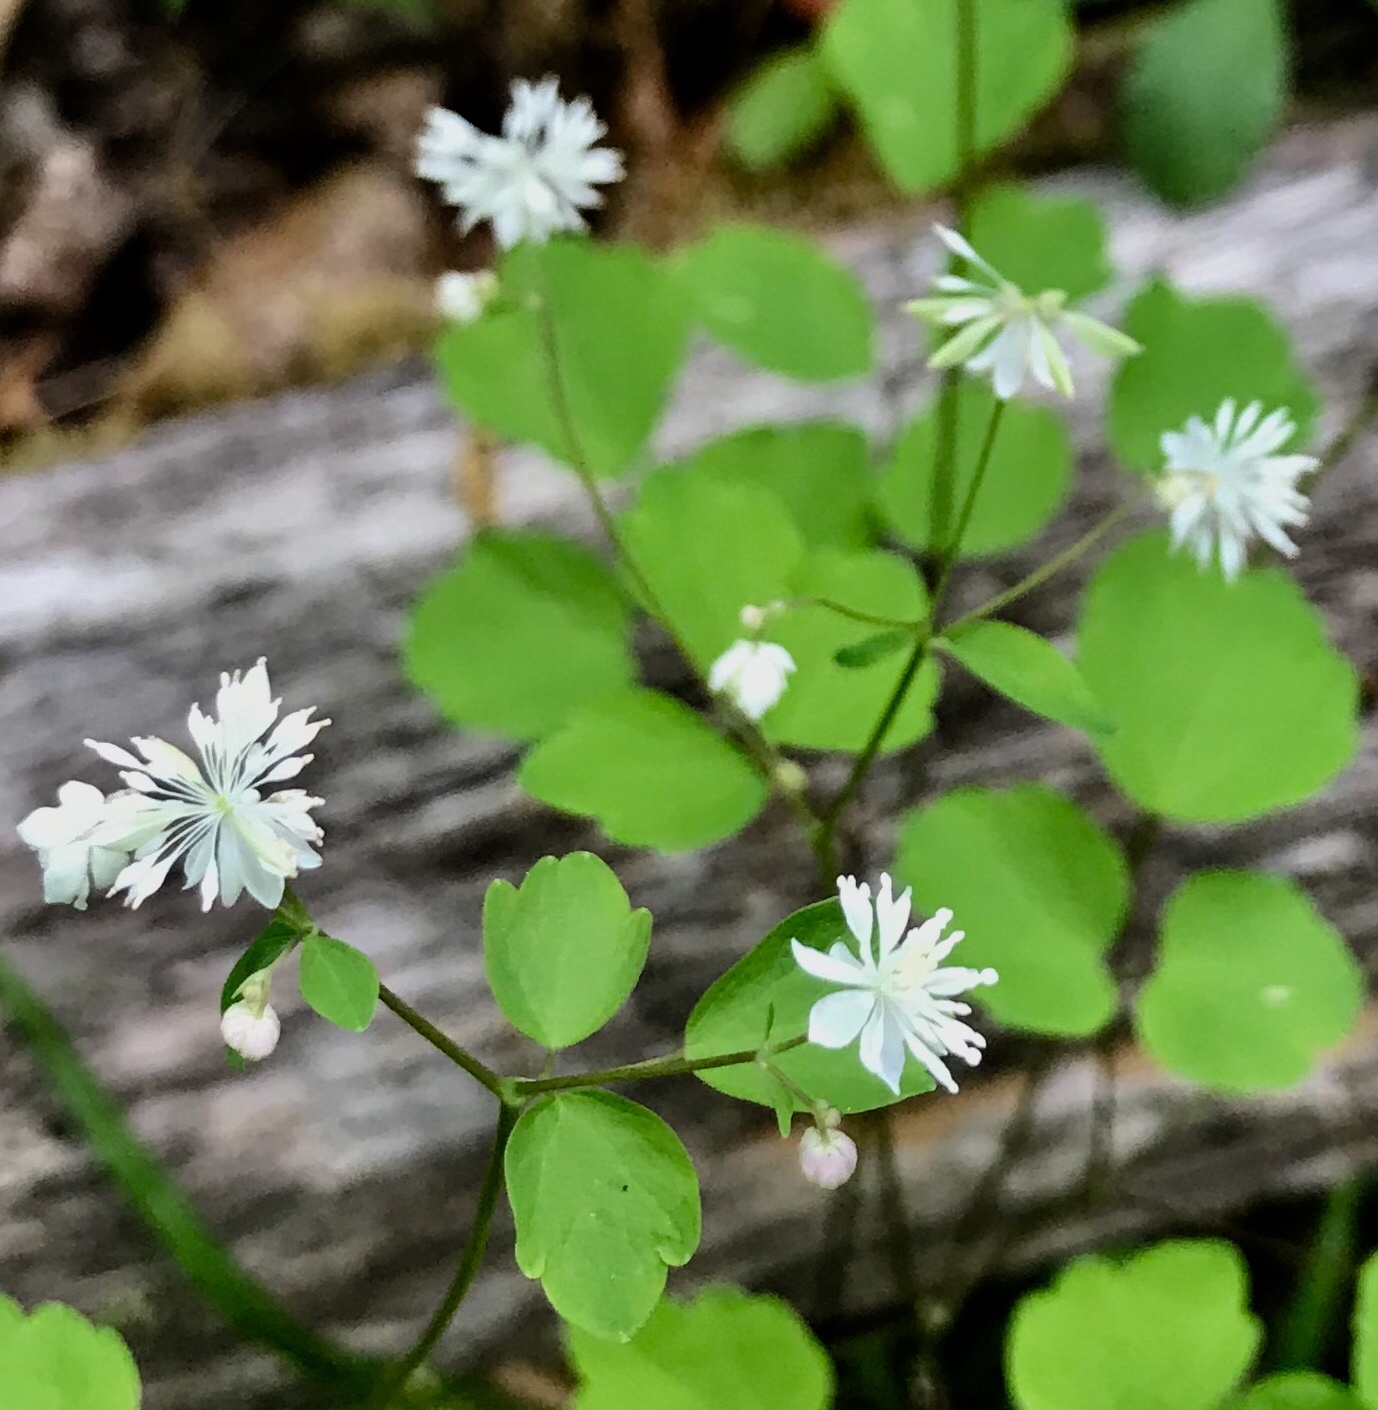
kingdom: Plantae
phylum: Tracheophyta
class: Magnoliopsida
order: Ranunculales
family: Ranunculaceae
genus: Thalictrum
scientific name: Thalictrum clavatum
